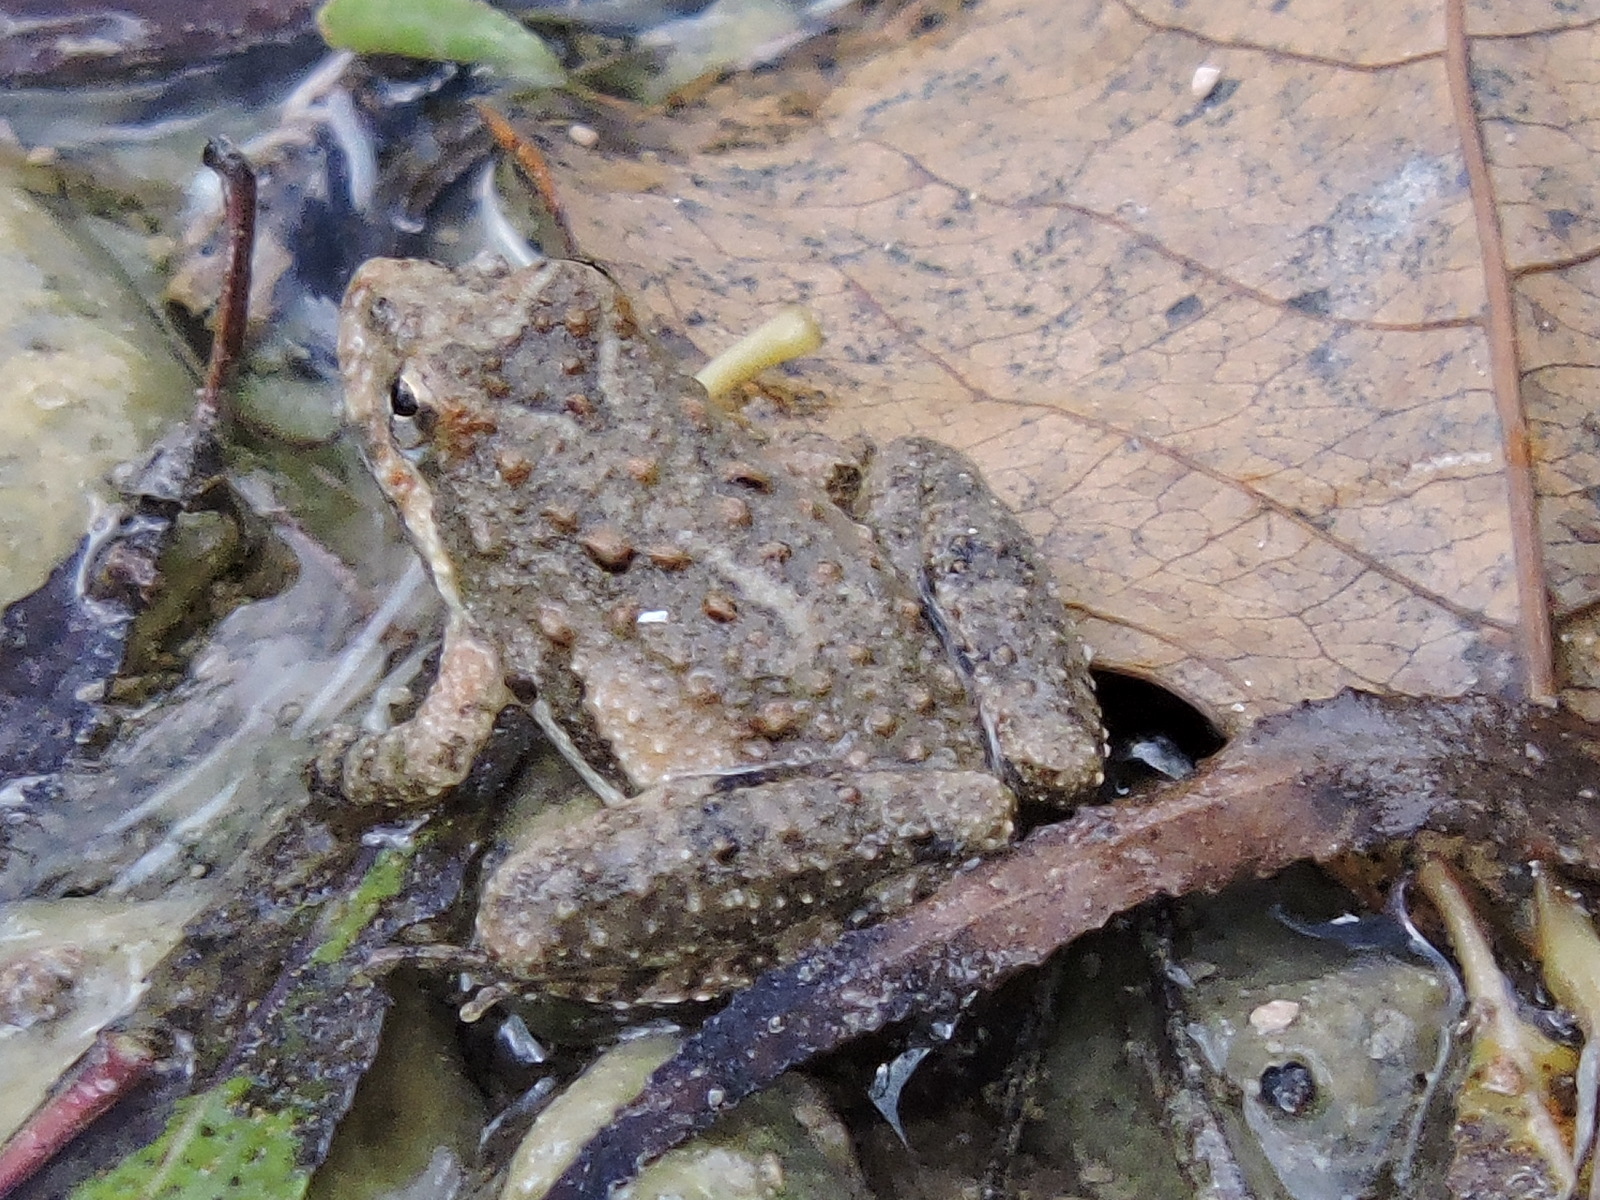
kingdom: Animalia
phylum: Chordata
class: Amphibia
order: Anura
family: Hylidae
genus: Acris
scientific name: Acris blanchardi
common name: Blanchard's cricket frog
